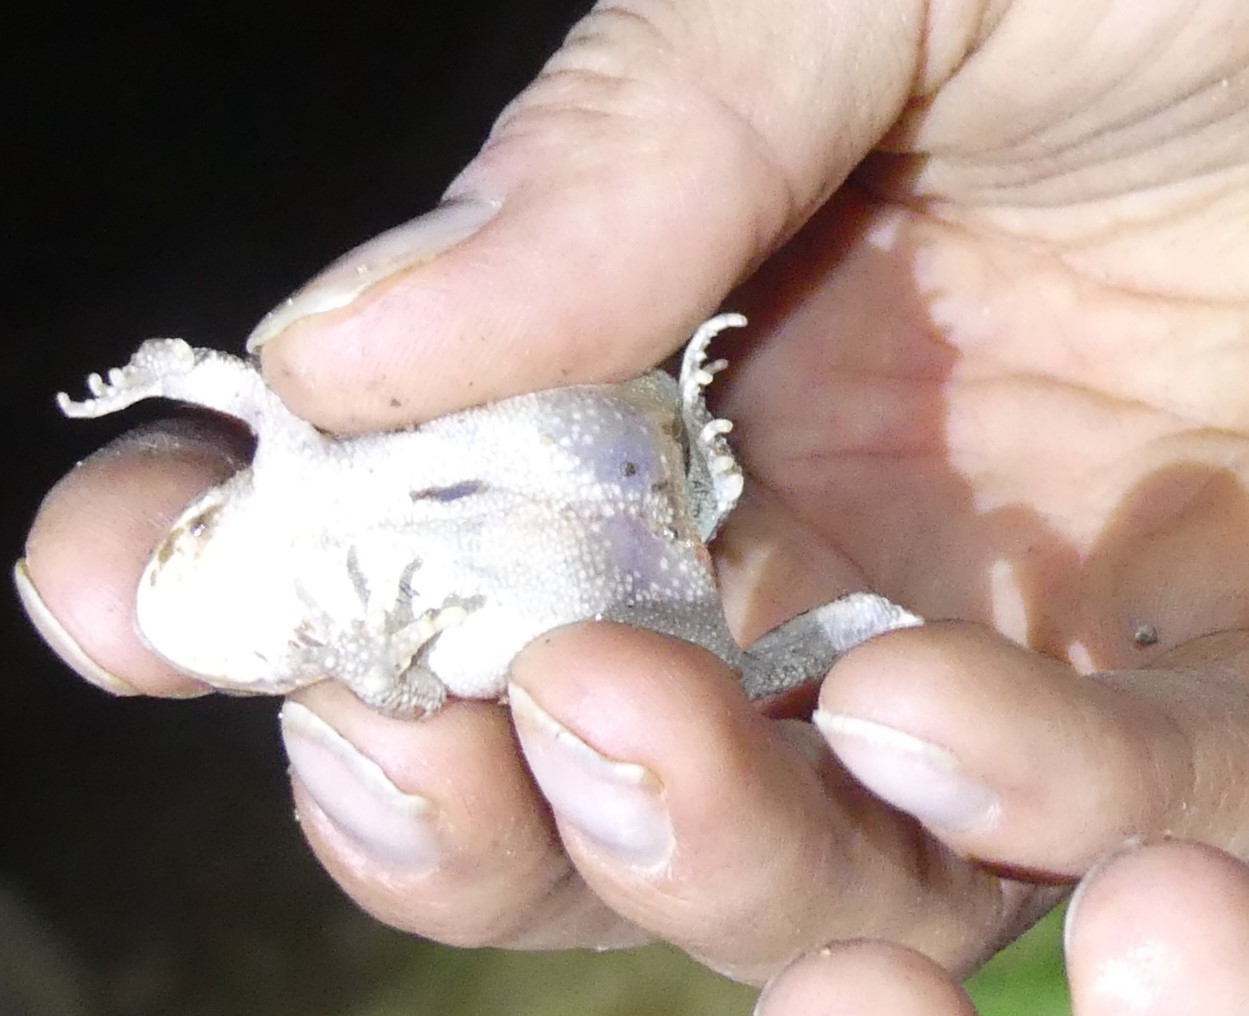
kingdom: Animalia
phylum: Chordata
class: Amphibia
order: Anura
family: Bufonidae
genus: Sclerophrys
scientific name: Sclerophrys mauritanica
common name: Berber toad
